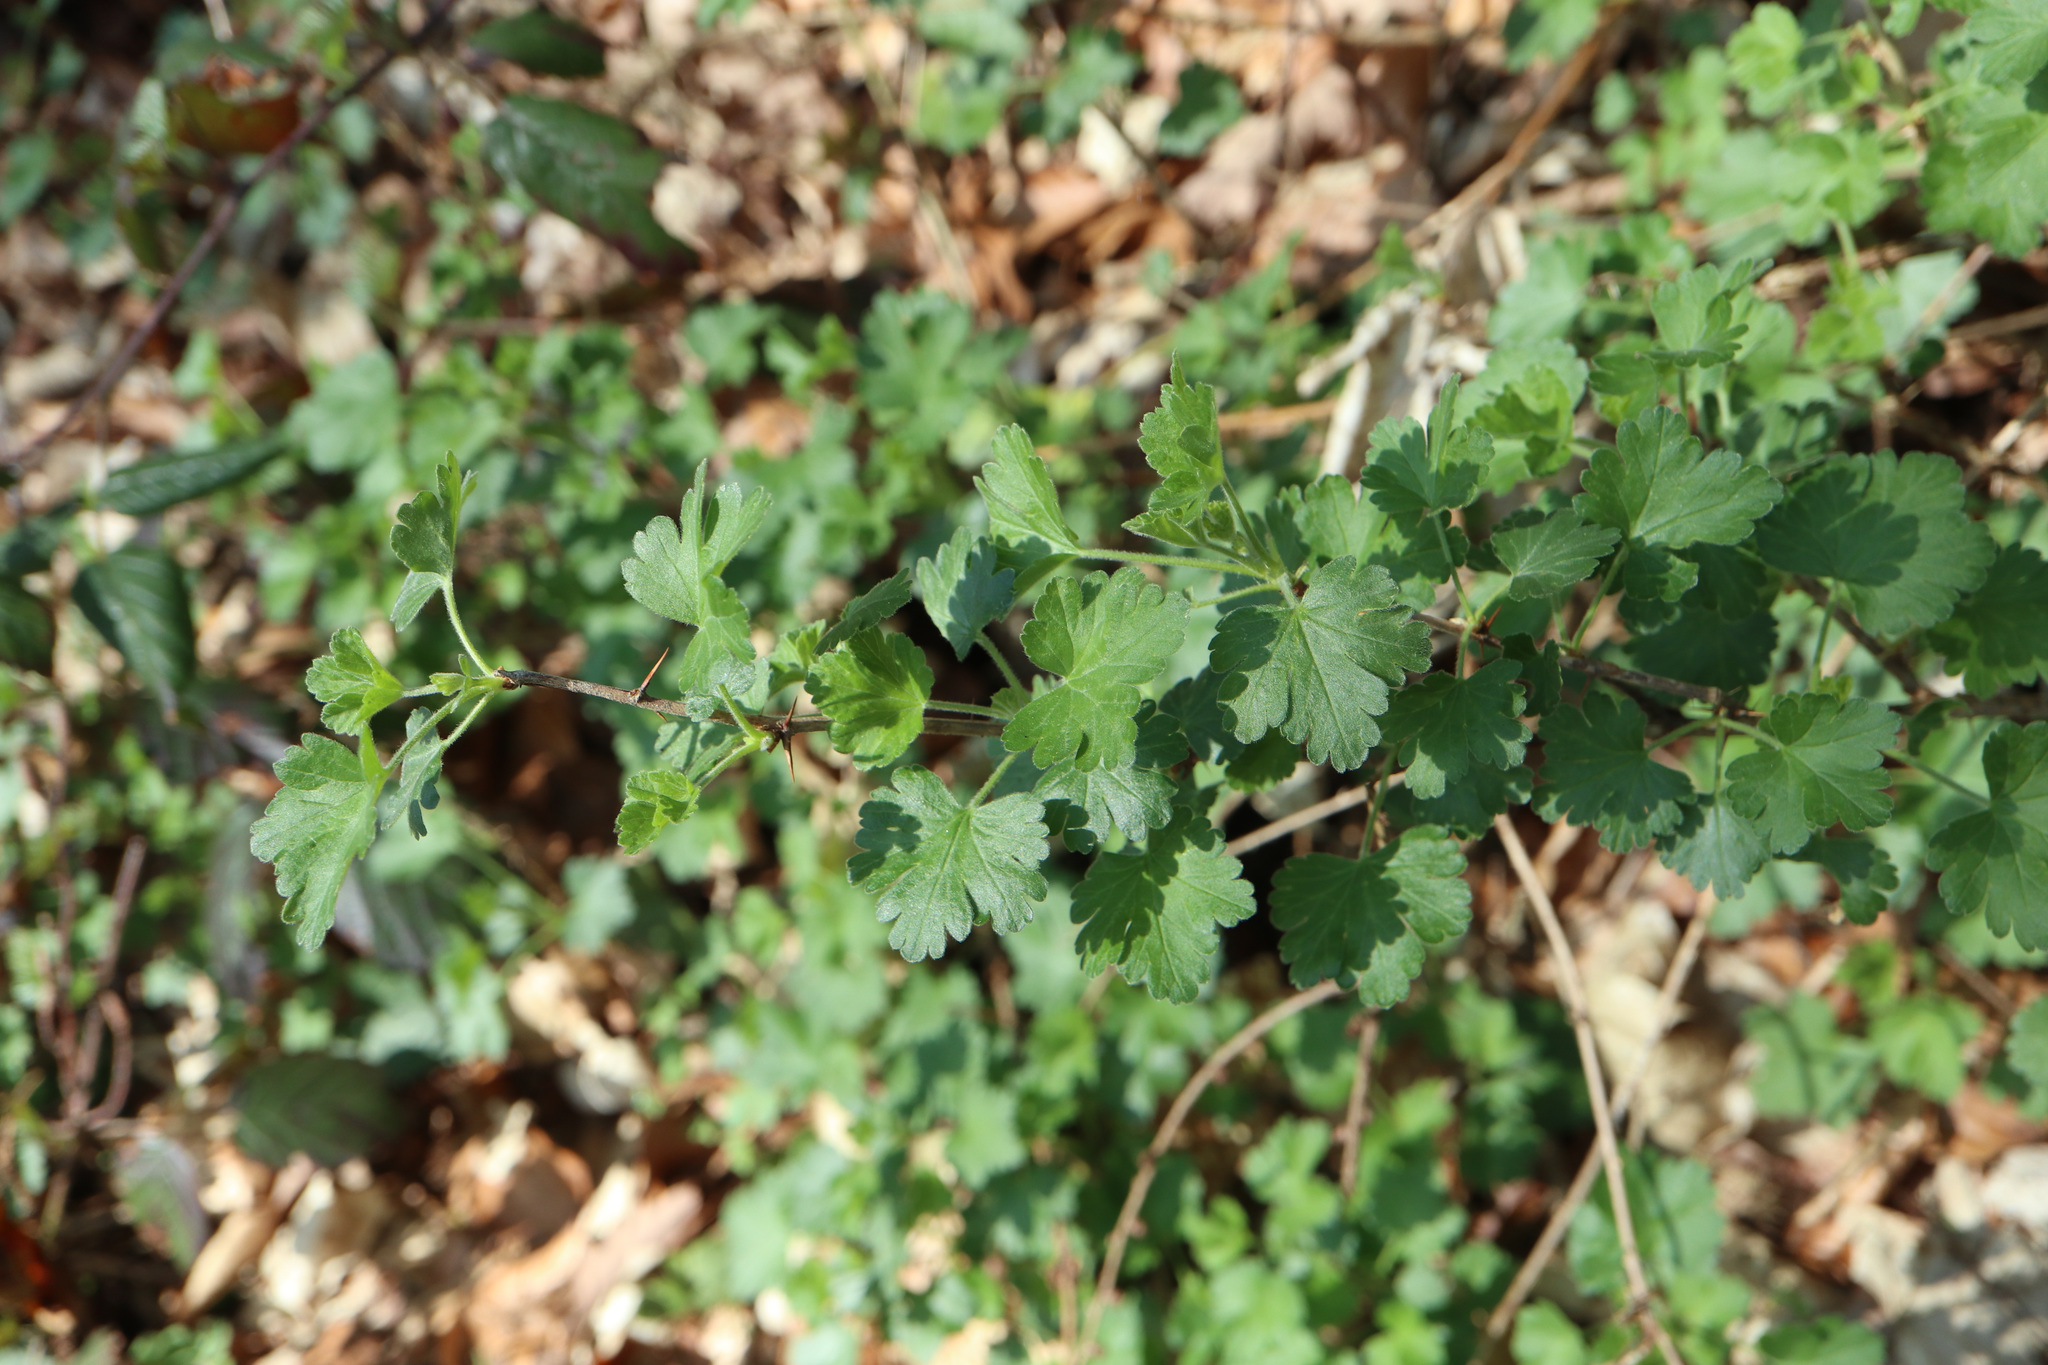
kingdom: Plantae
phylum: Tracheophyta
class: Magnoliopsida
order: Saxifragales
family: Grossulariaceae
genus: Ribes
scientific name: Ribes uva-crispa
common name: Gooseberry
